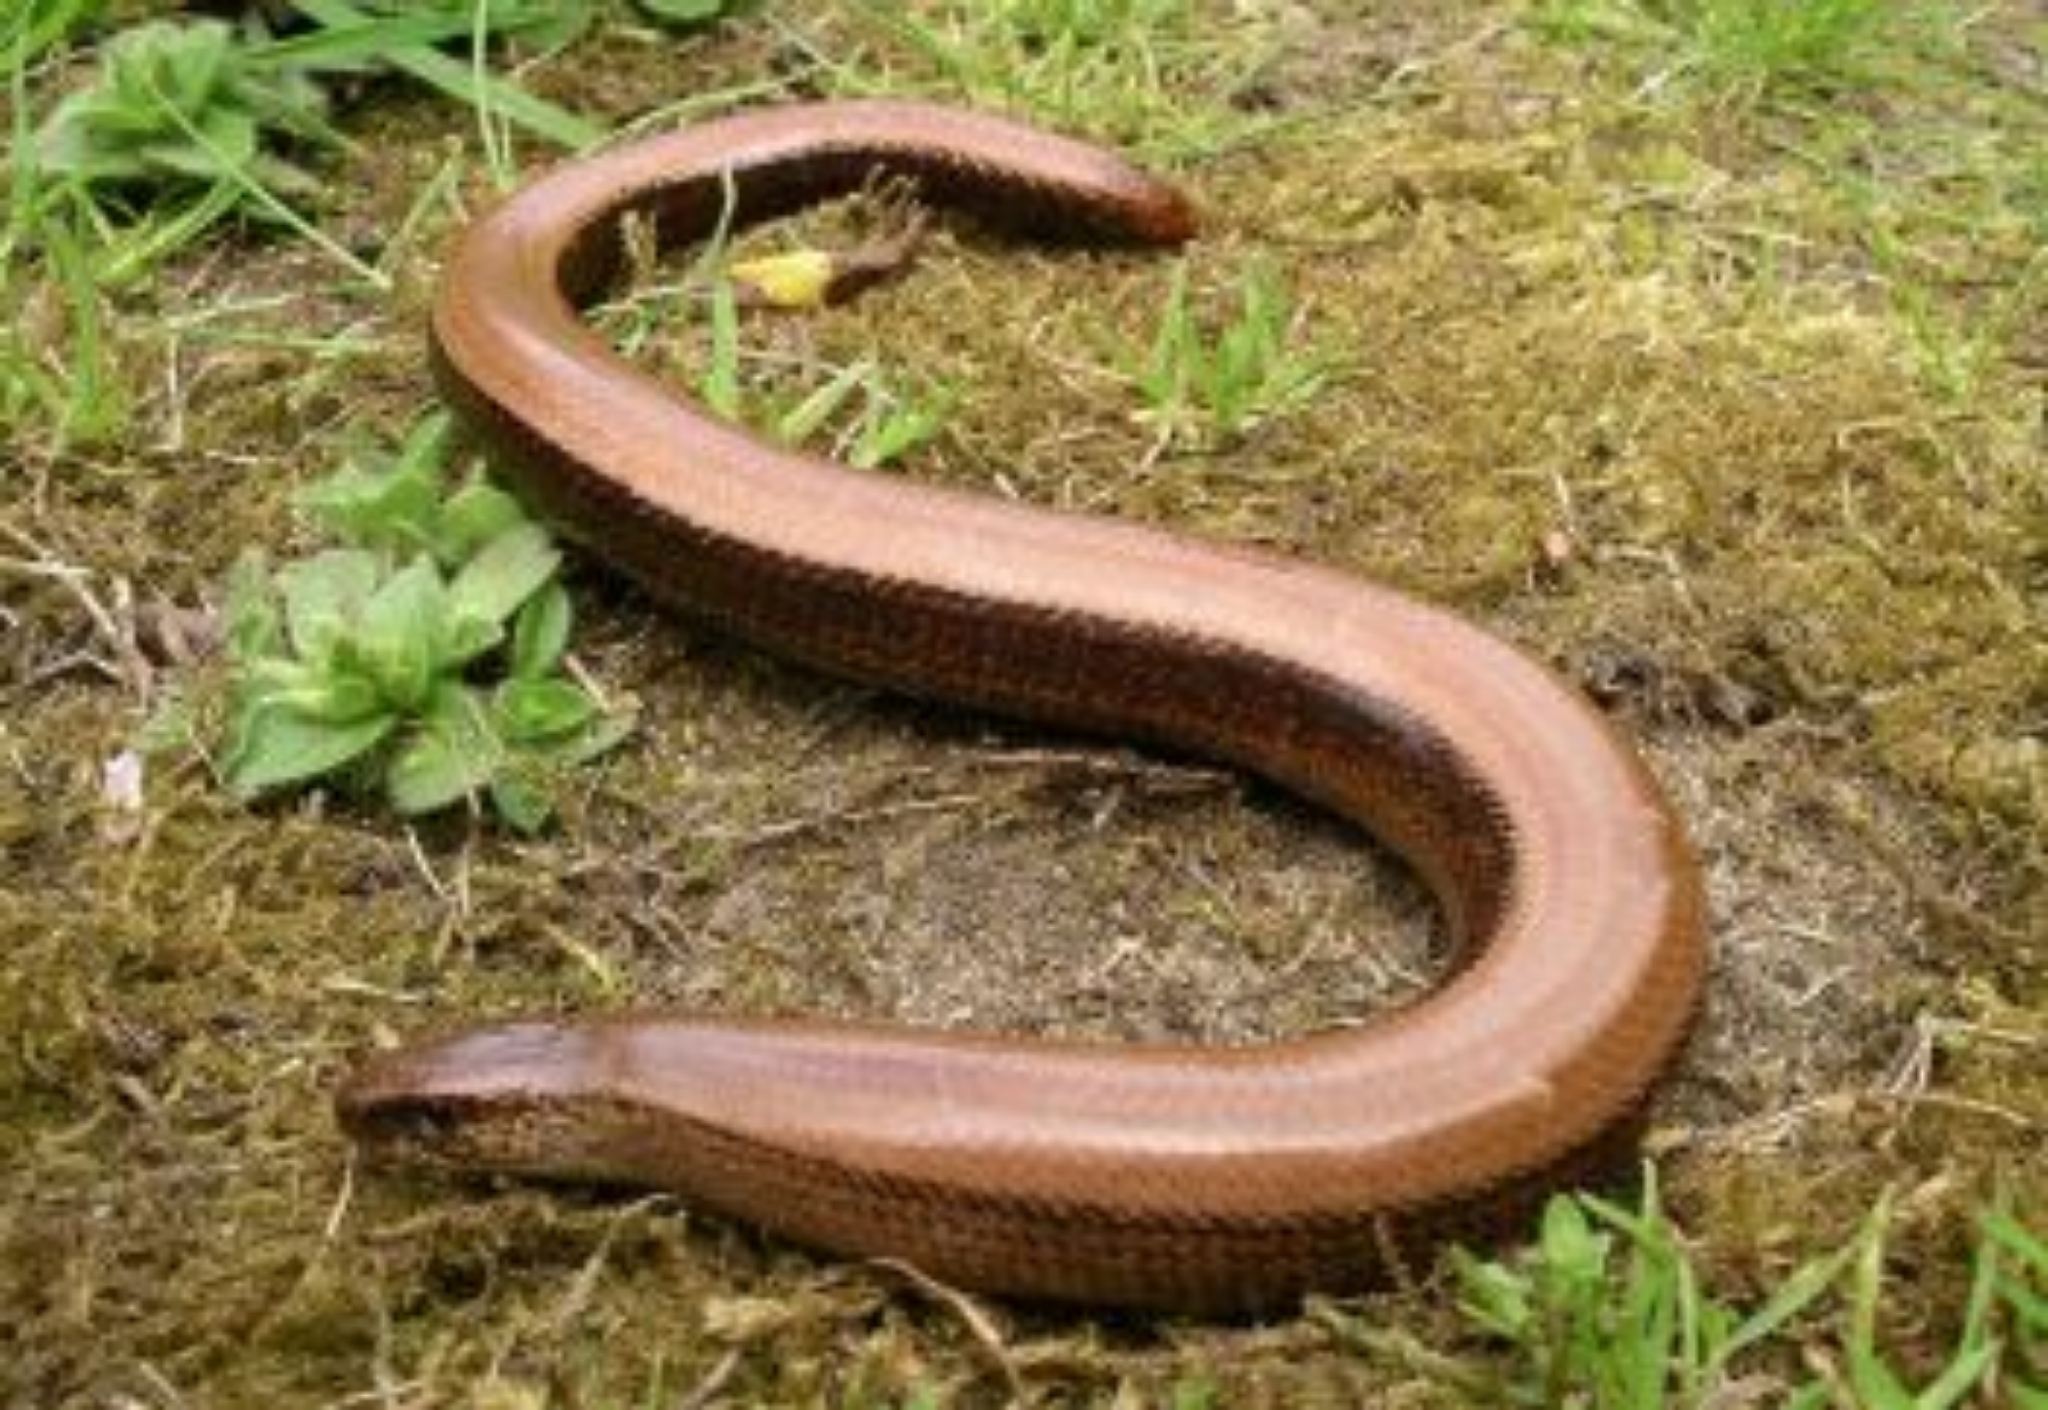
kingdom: Animalia
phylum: Chordata
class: Squamata
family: Anguidae
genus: Anguis
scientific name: Anguis fragilis
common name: Slow worm
